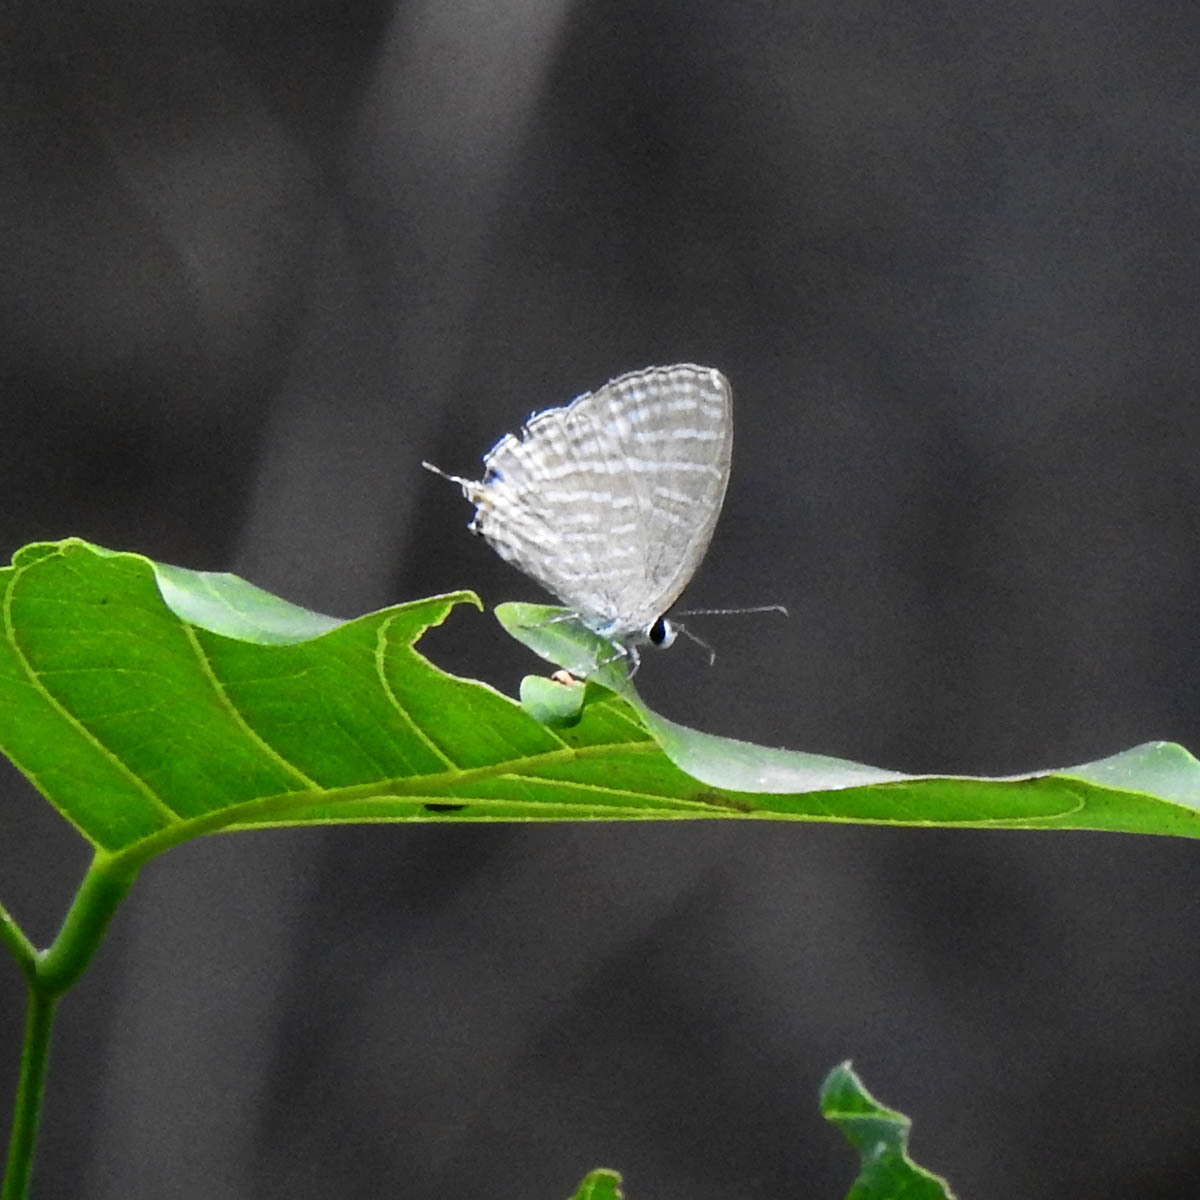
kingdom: Animalia
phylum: Arthropoda
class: Insecta
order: Lepidoptera
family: Lycaenidae
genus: Jamides
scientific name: Jamides celeno
